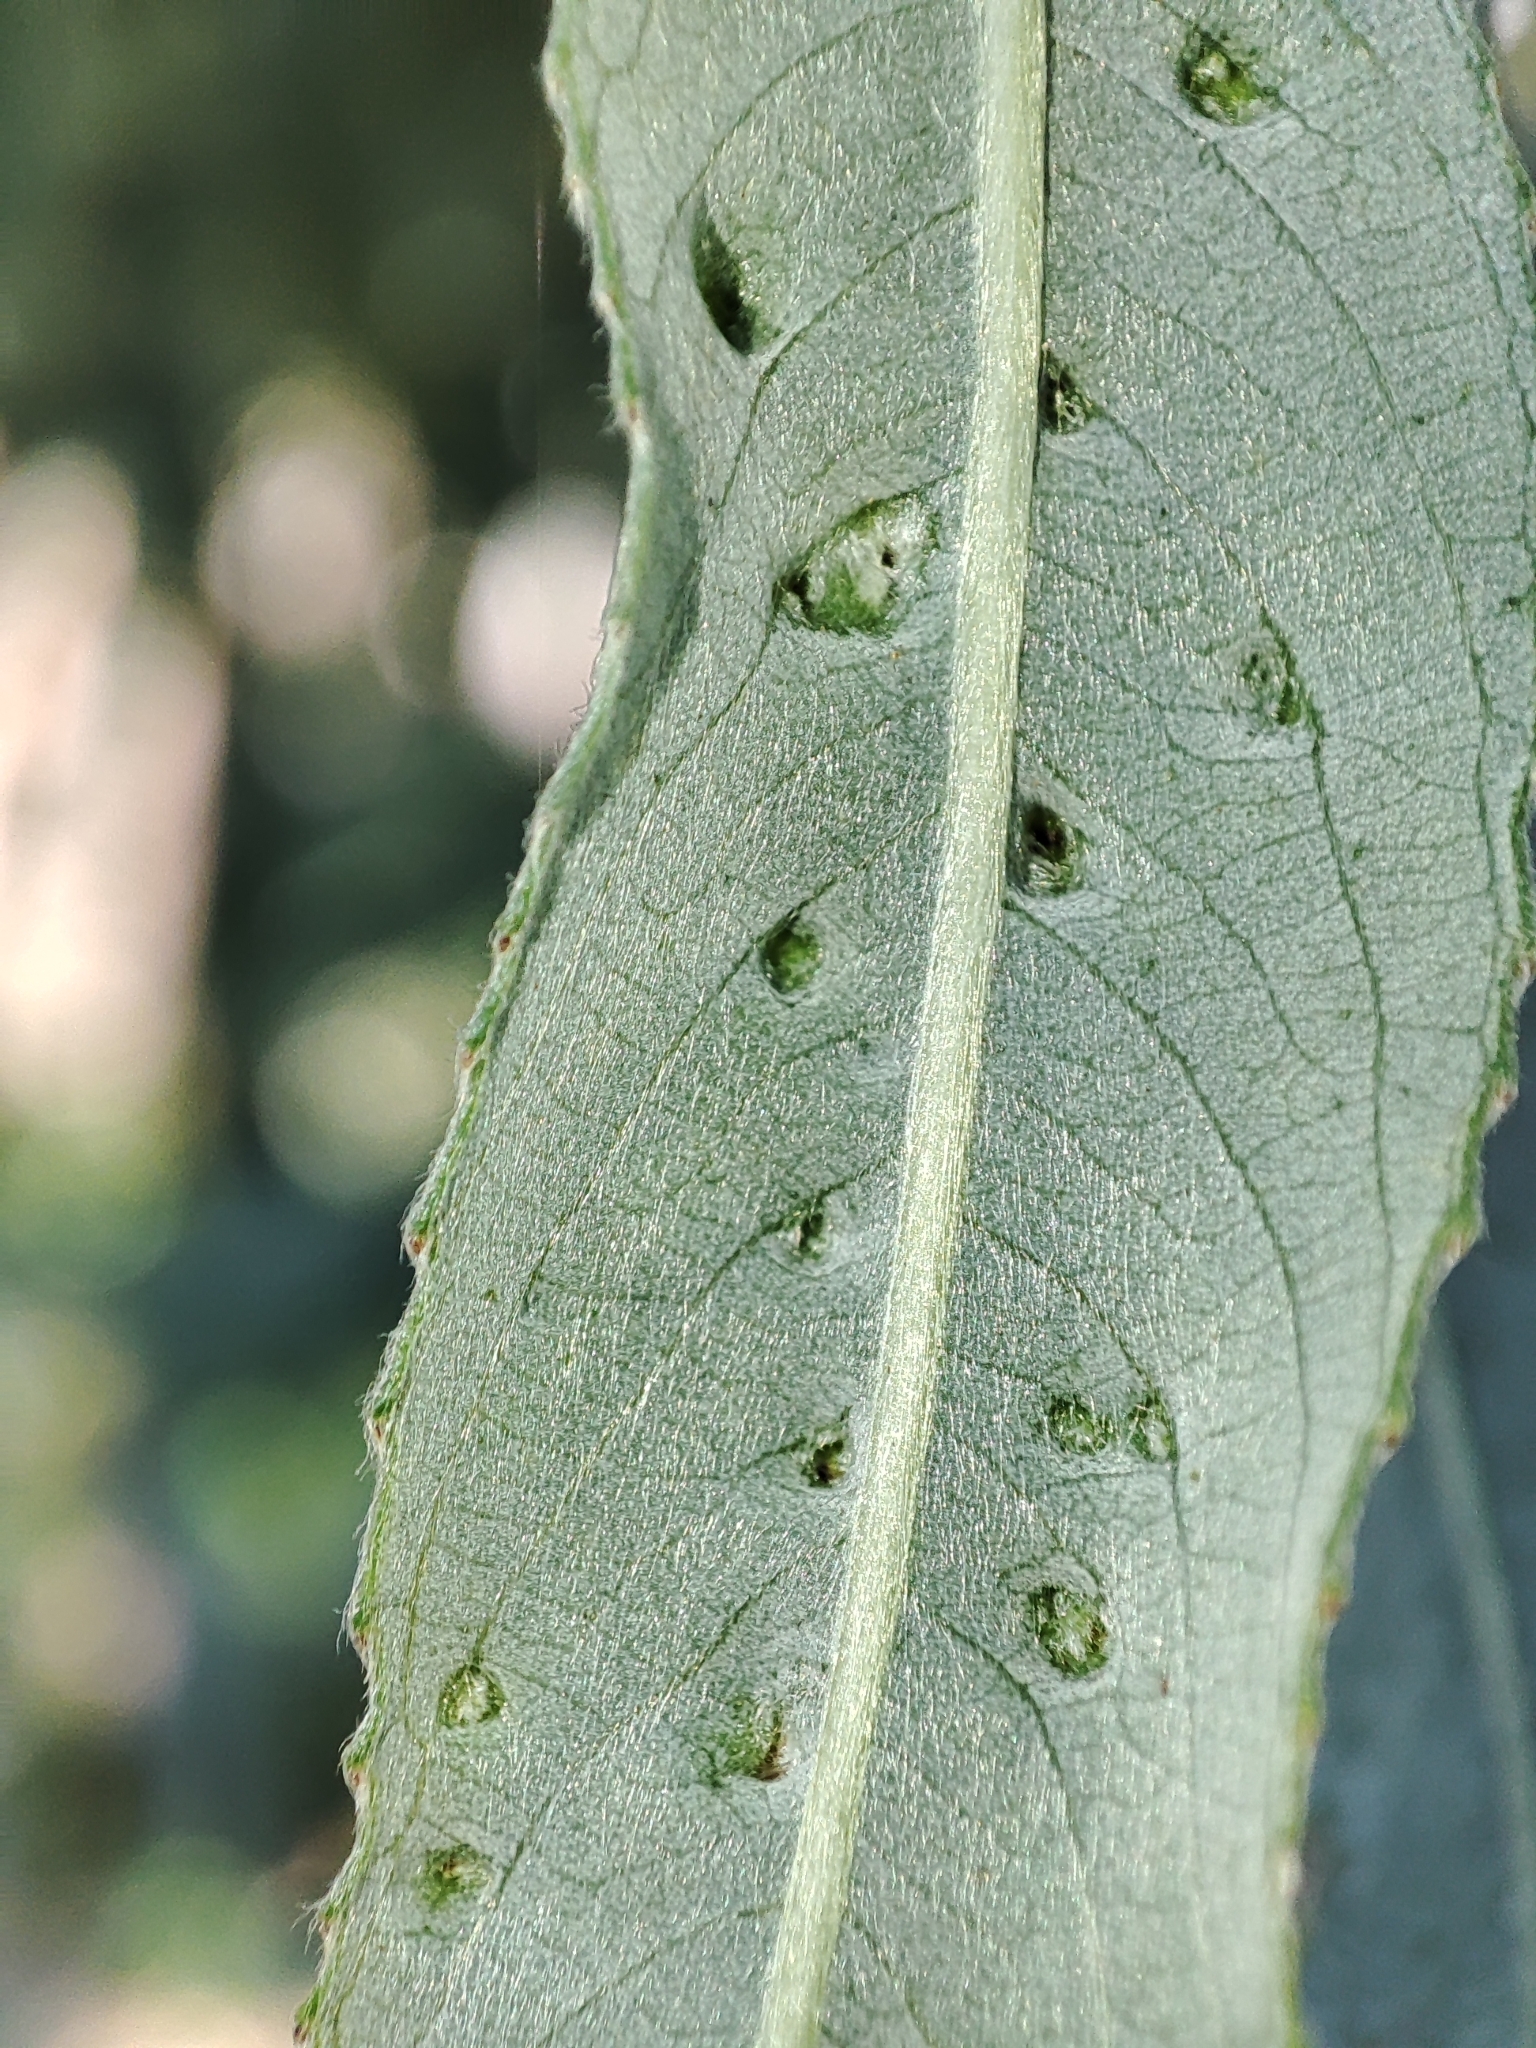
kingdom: Plantae
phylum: Tracheophyta
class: Magnoliopsida
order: Malpighiales
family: Salicaceae
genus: Salix
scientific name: Salix fragilis
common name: Crack willow
